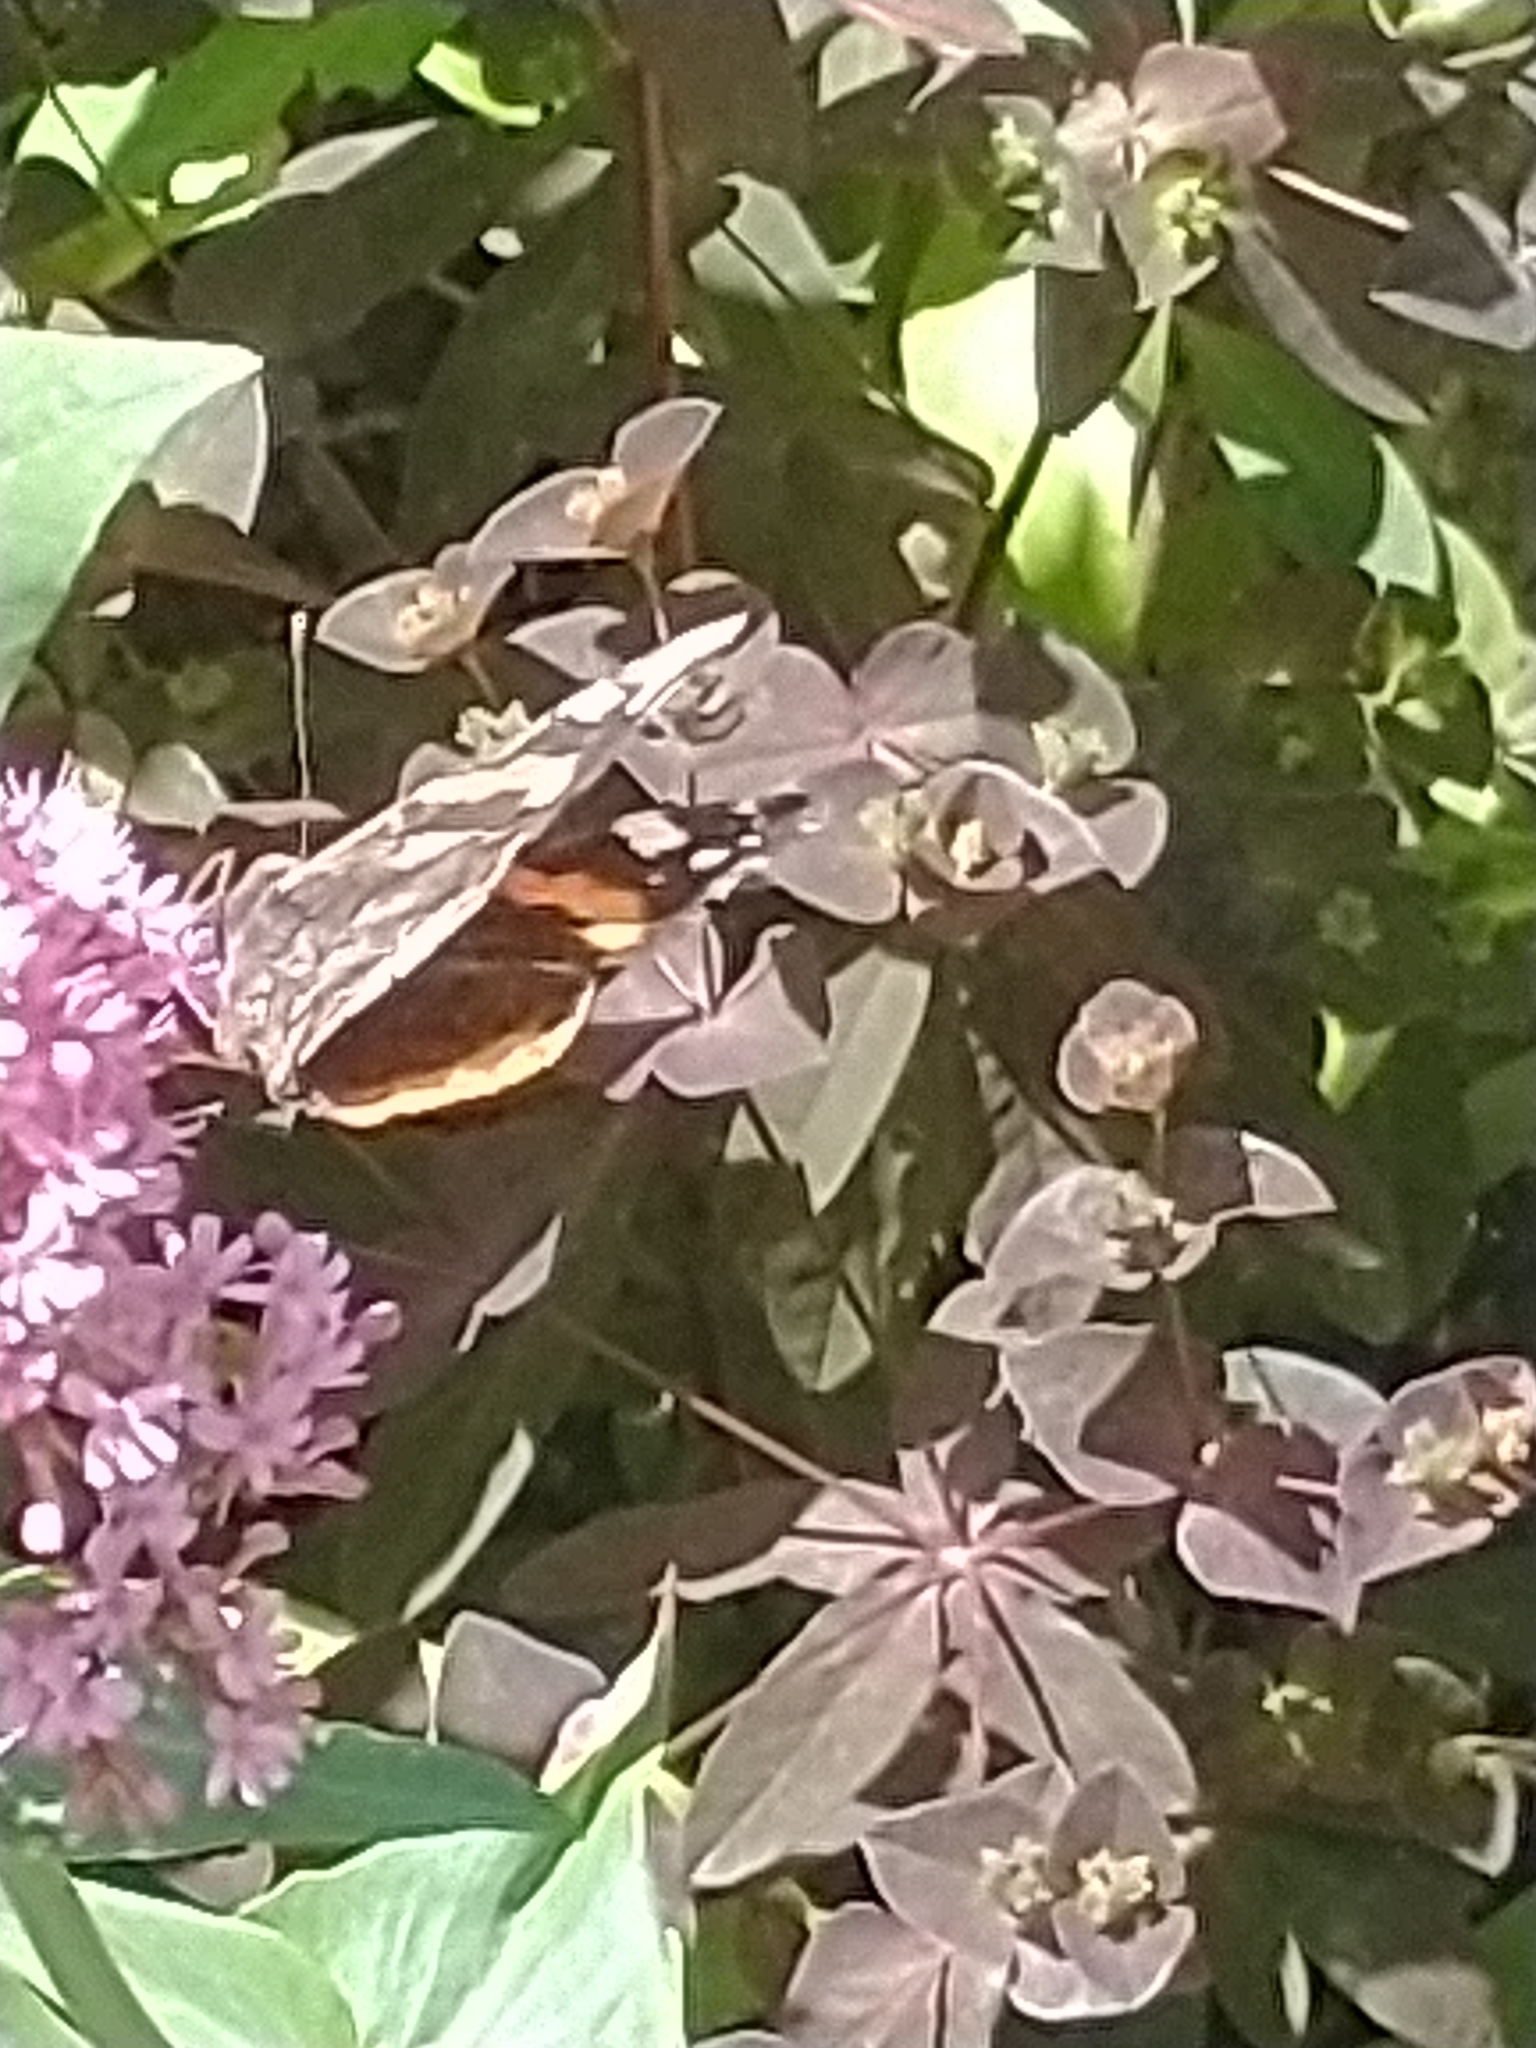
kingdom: Animalia
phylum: Arthropoda
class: Insecta
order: Lepidoptera
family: Nymphalidae
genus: Vanessa
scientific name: Vanessa atalanta
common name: Red admiral
